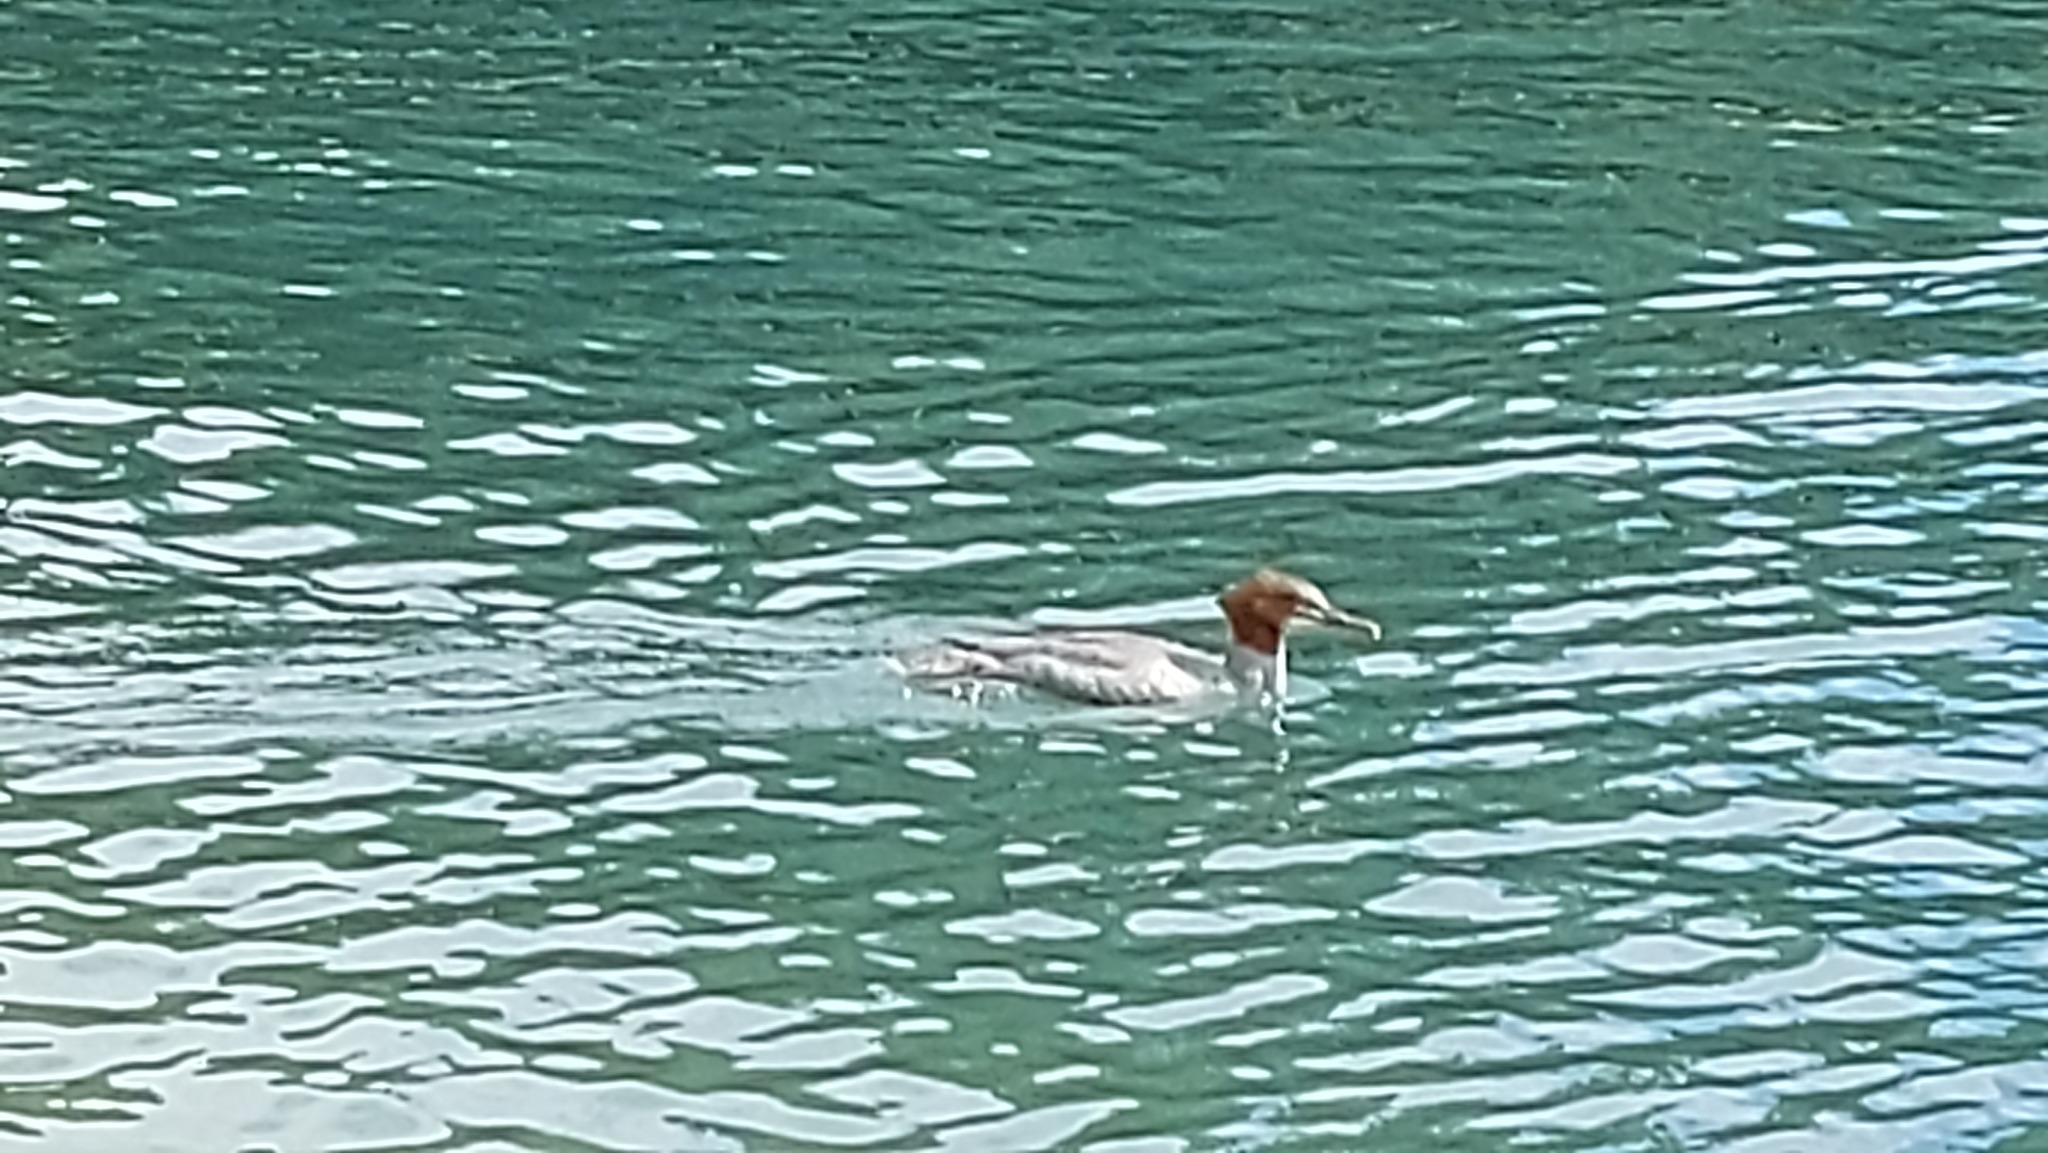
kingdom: Animalia
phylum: Chordata
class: Aves
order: Anseriformes
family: Anatidae
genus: Mergus
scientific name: Mergus merganser
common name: Common merganser
